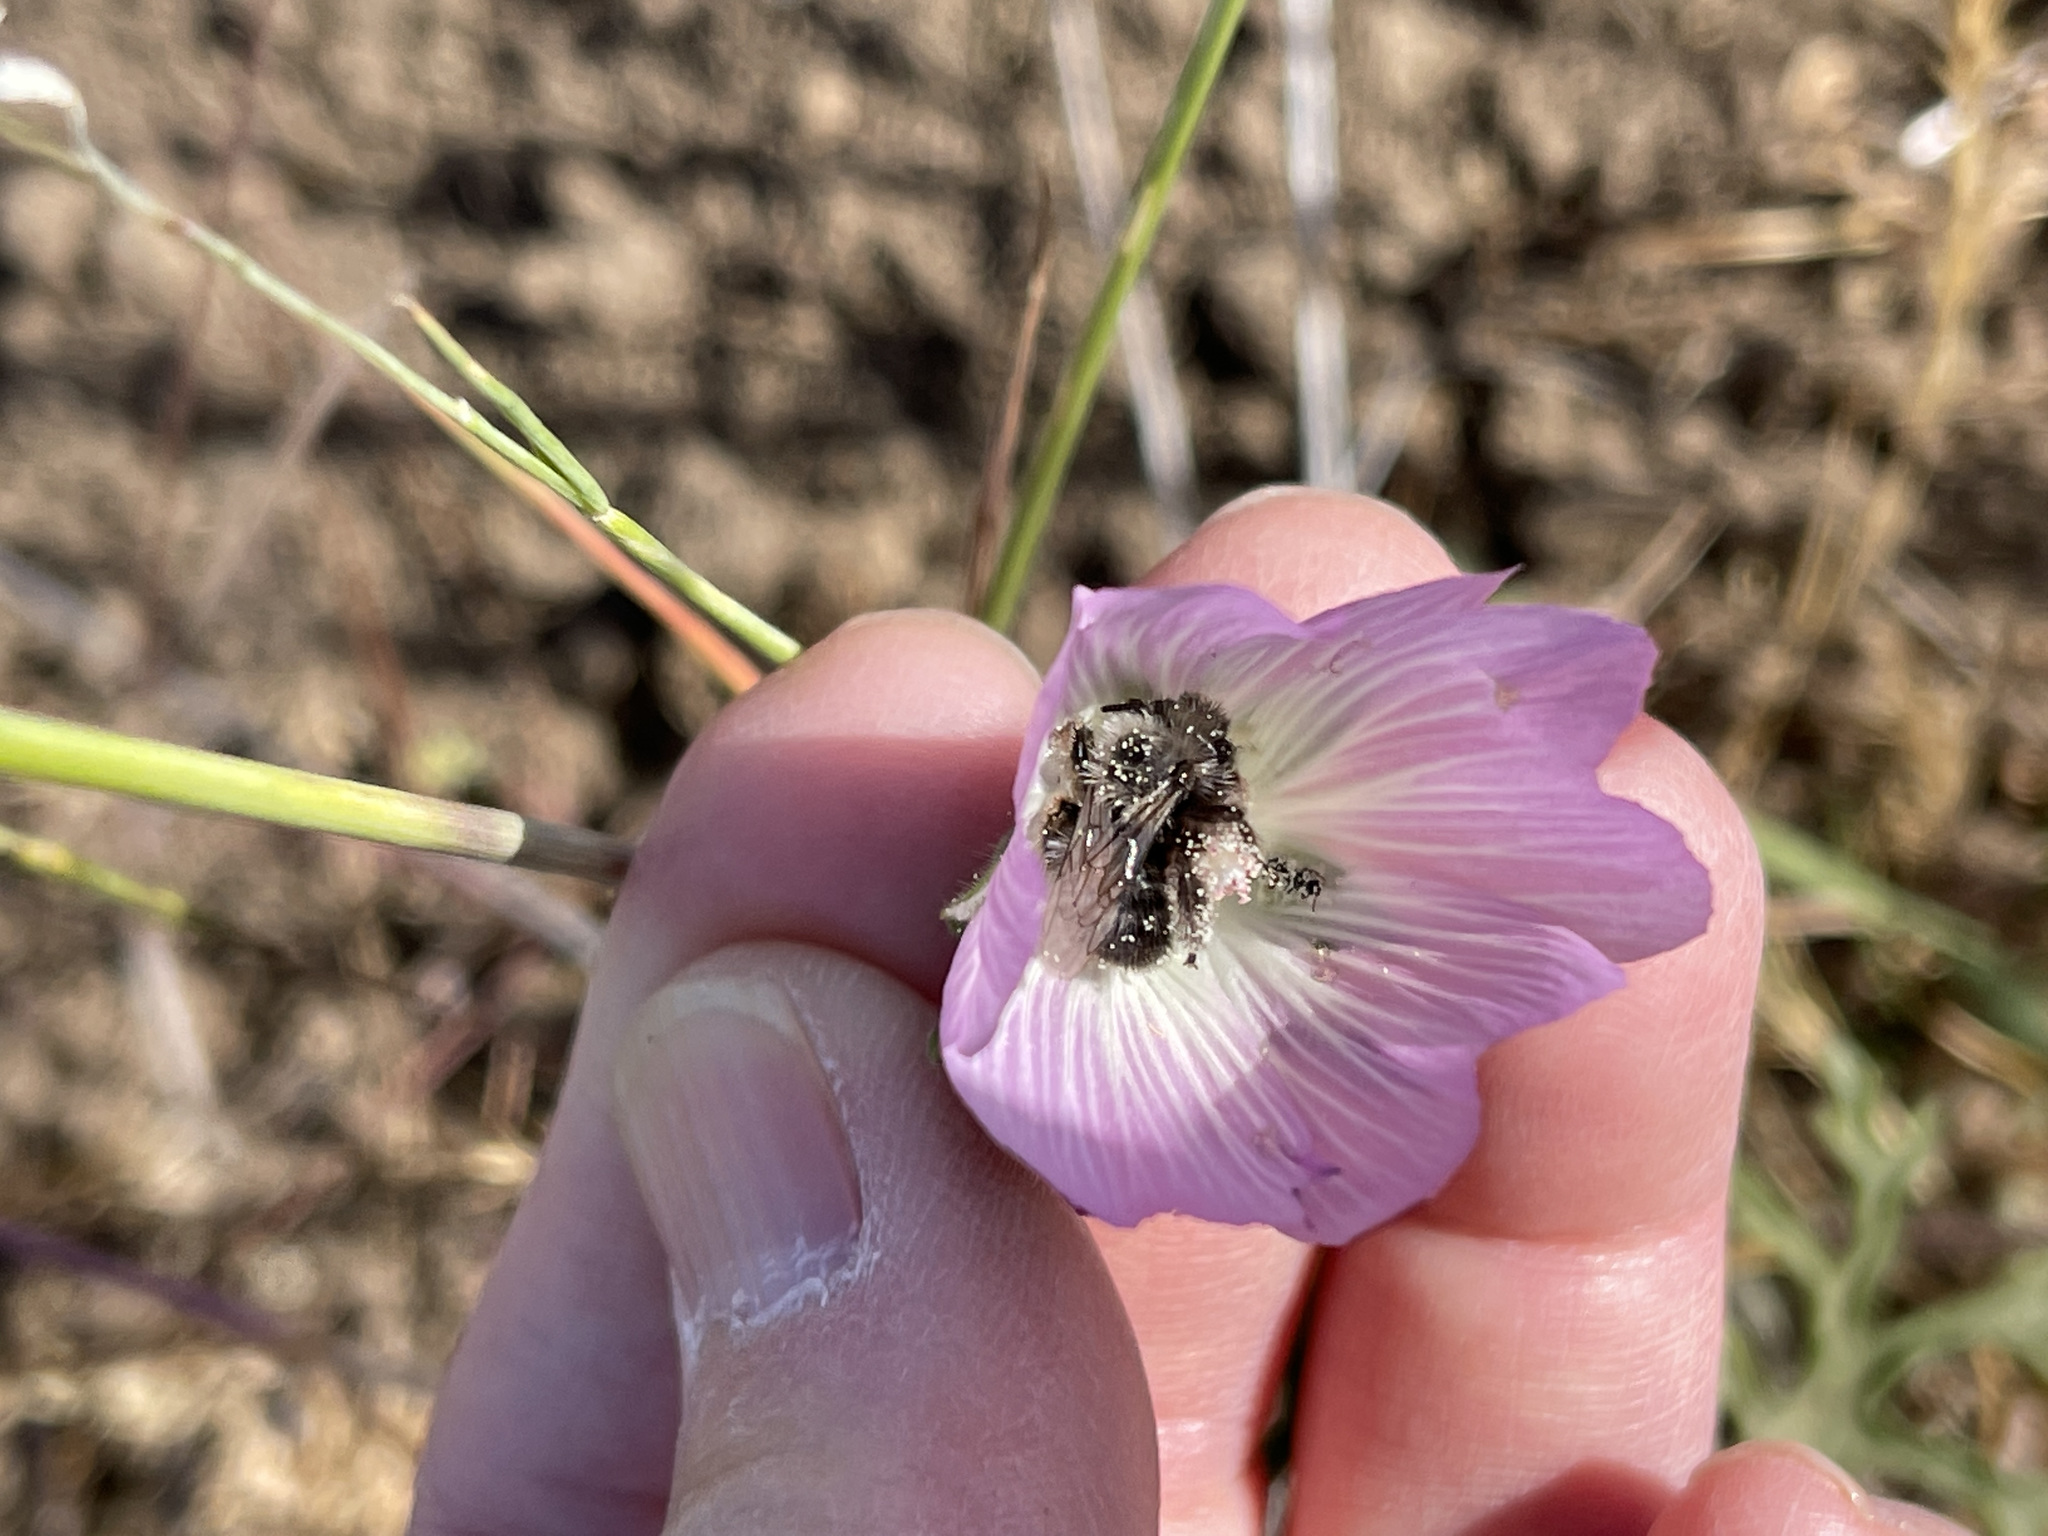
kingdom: Plantae
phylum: Tracheophyta
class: Magnoliopsida
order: Malvales
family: Malvaceae
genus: Sidalcea
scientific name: Sidalcea diploscypha
